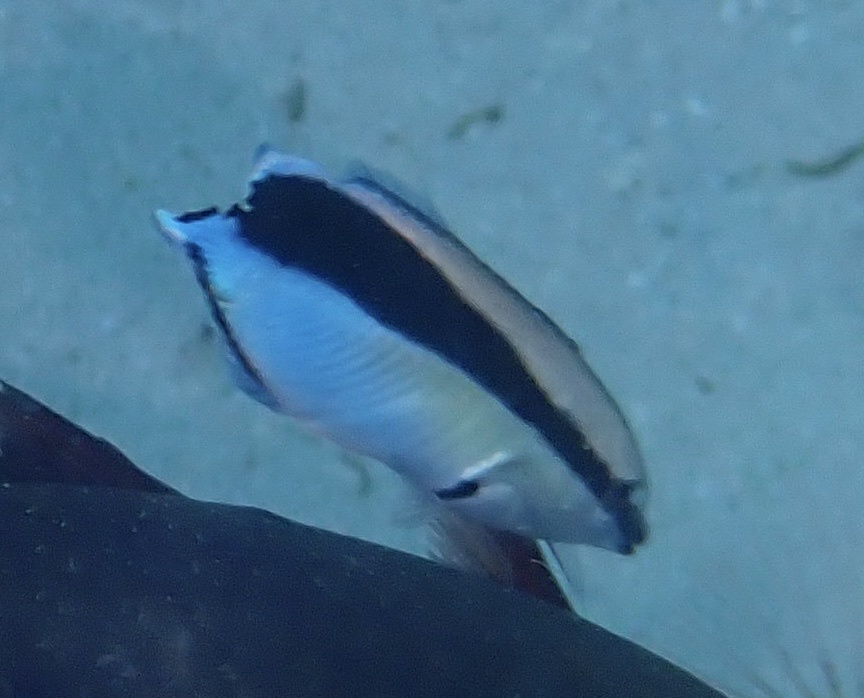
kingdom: Animalia
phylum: Chordata
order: Perciformes
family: Labridae
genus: Labroides
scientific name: Labroides dimidiatus
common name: Blue diesel wrasse
